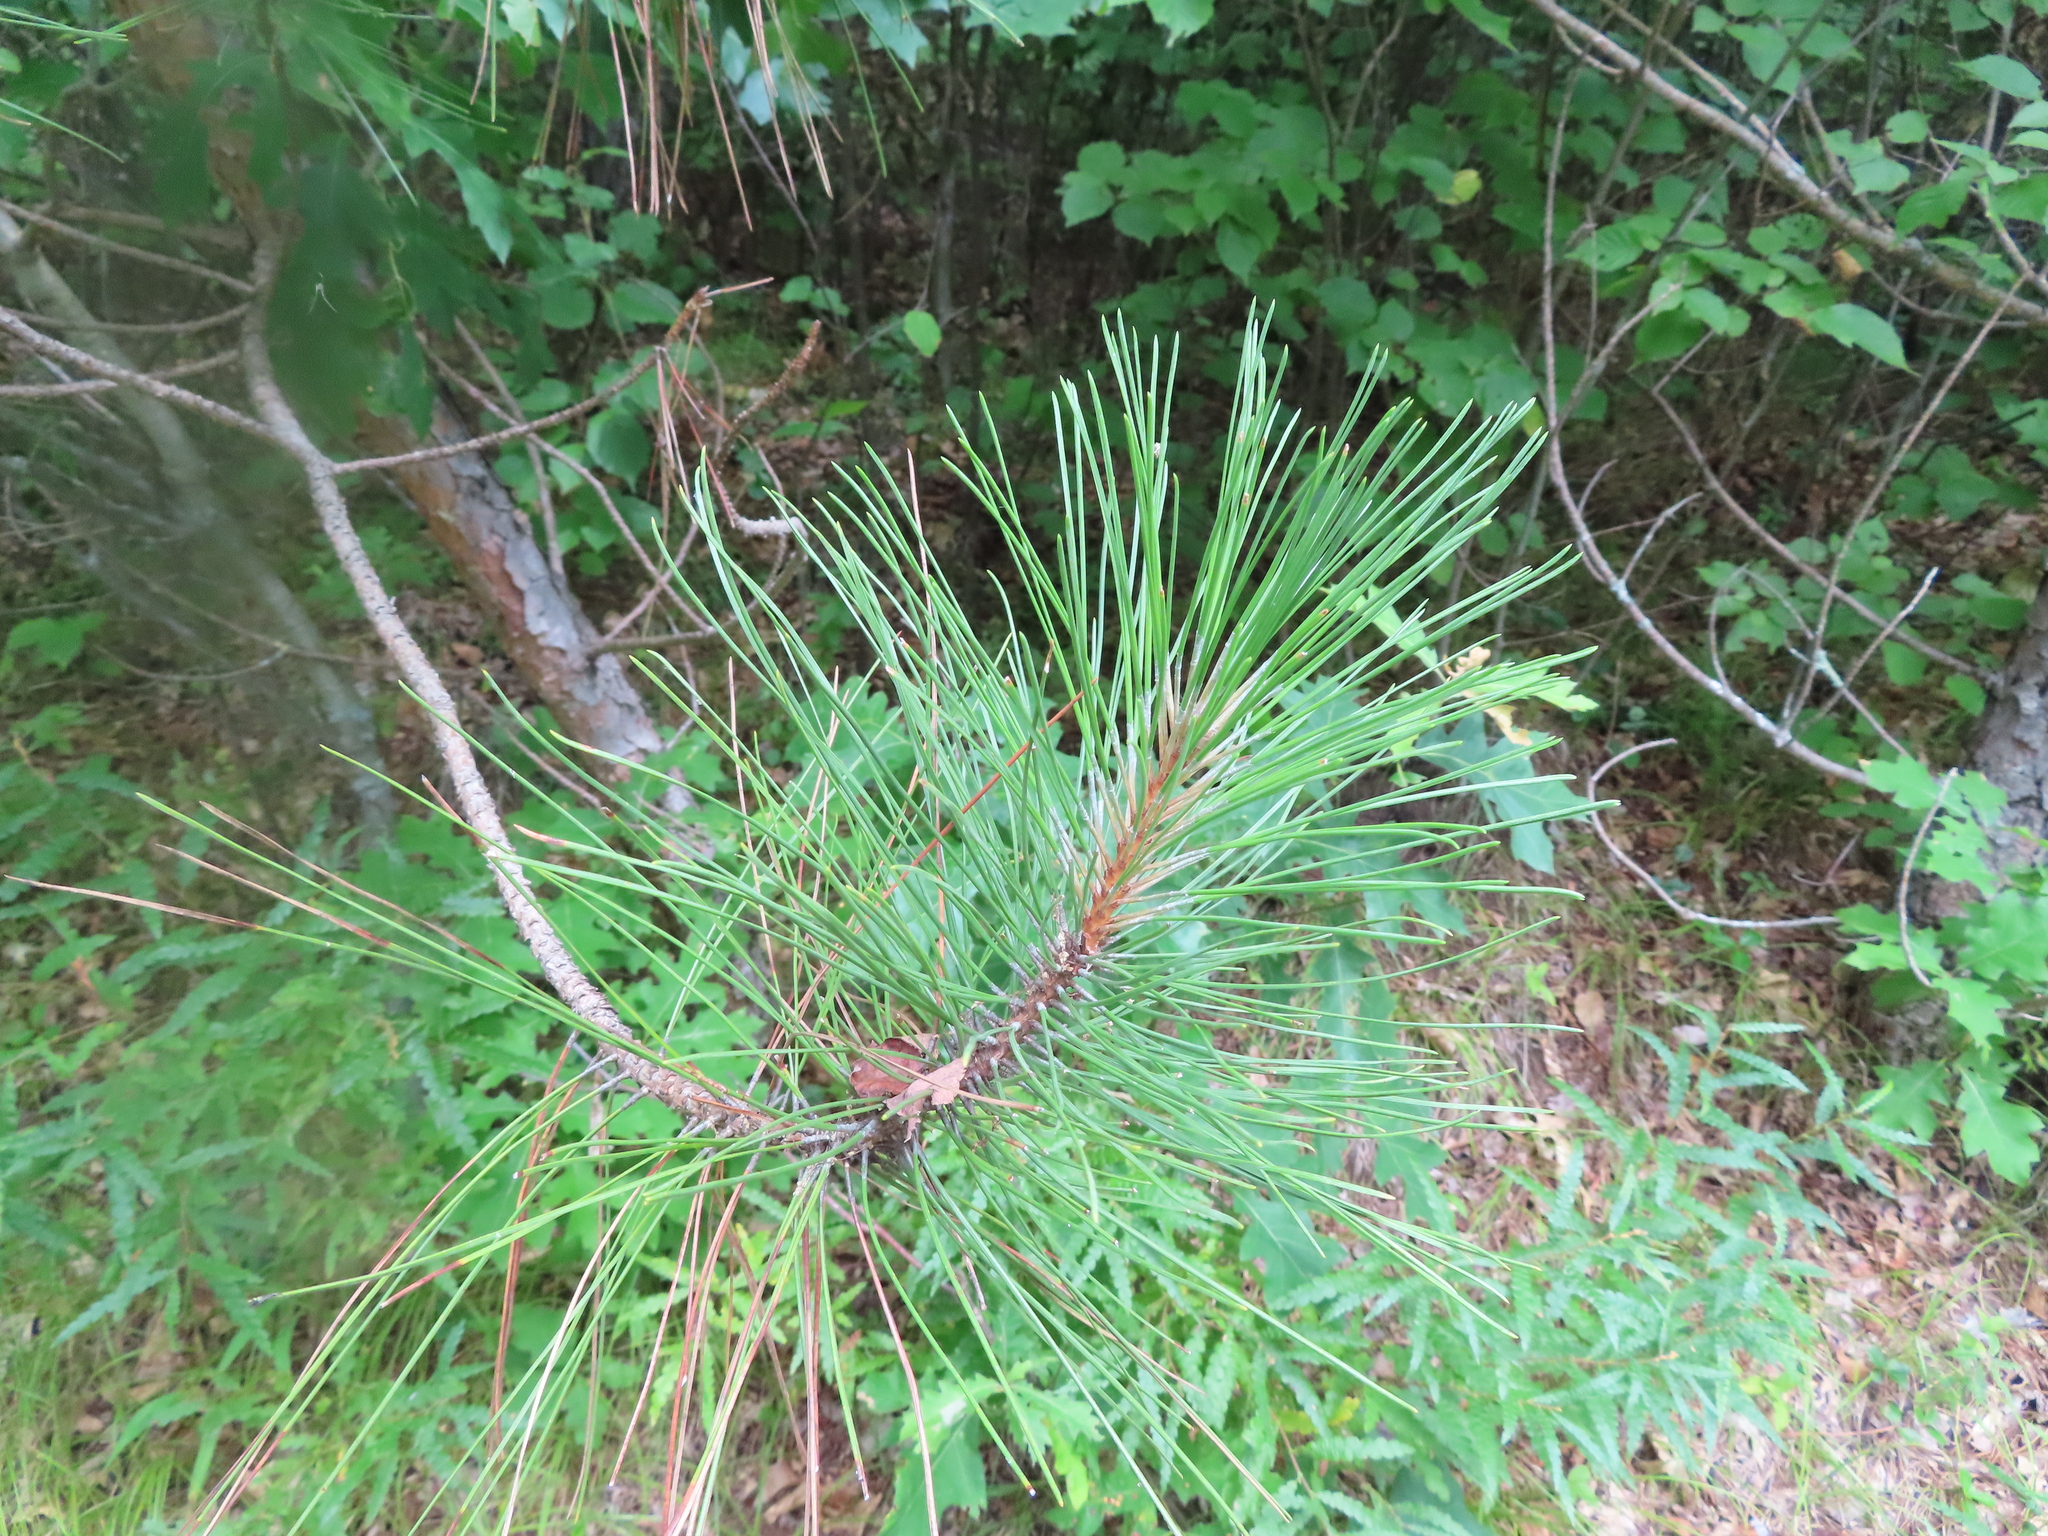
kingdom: Plantae
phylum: Tracheophyta
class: Pinopsida
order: Pinales
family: Pinaceae
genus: Pinus
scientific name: Pinus resinosa
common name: Norway pine
